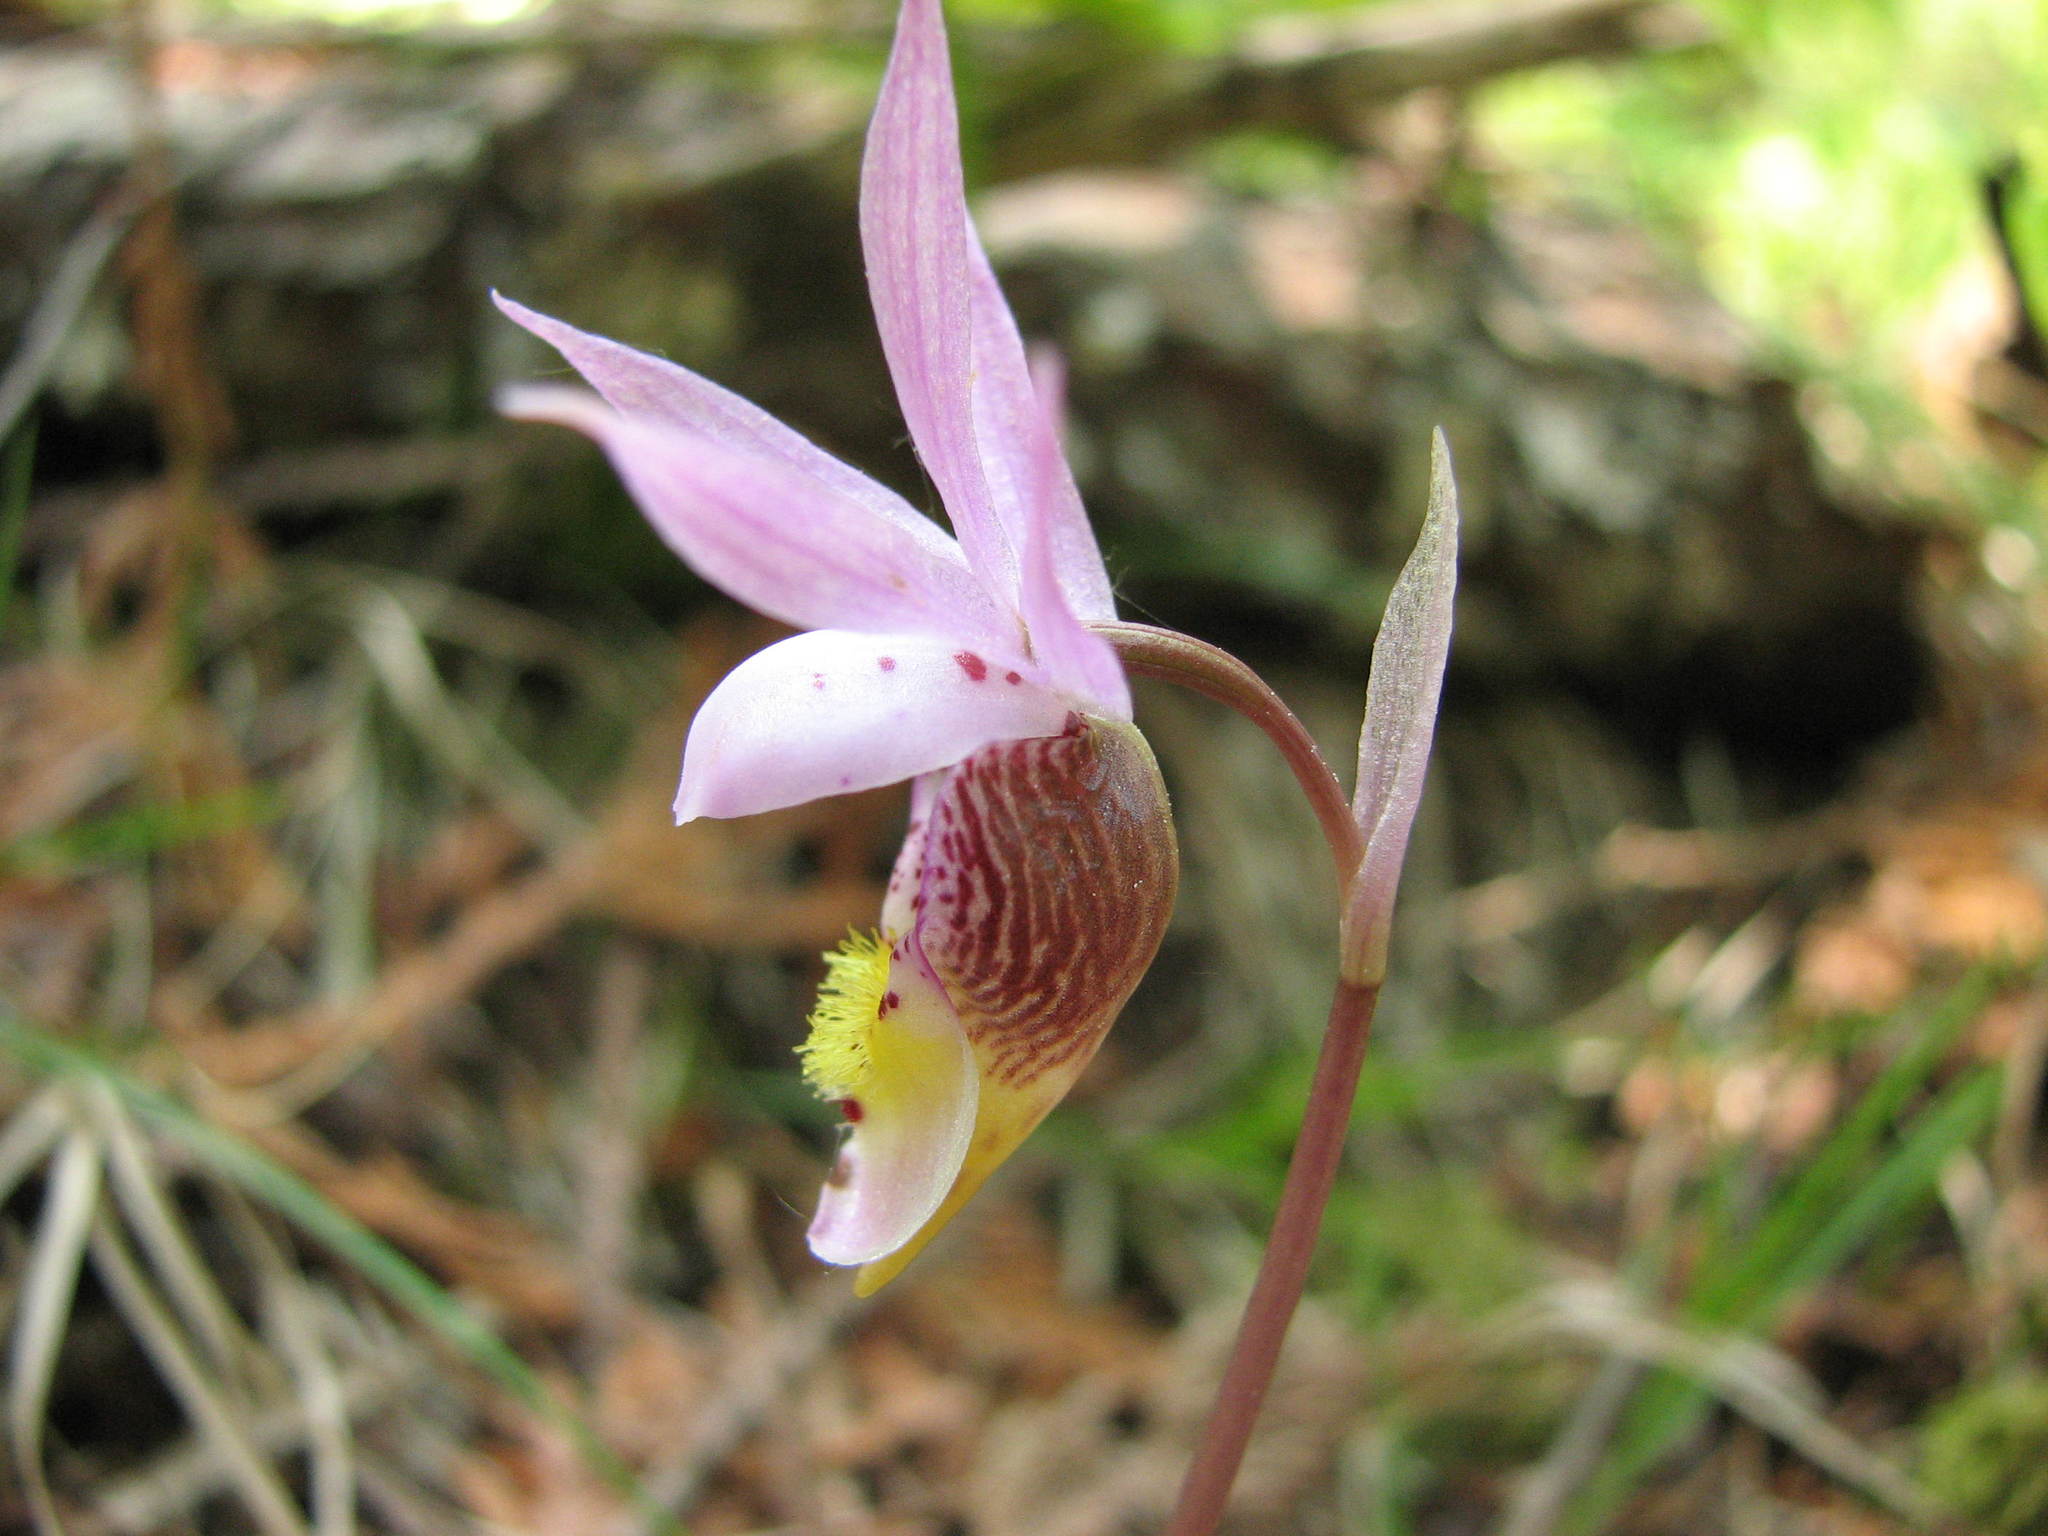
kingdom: Plantae
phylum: Tracheophyta
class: Liliopsida
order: Asparagales
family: Orchidaceae
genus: Calypso
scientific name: Calypso bulbosa
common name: Calypso
